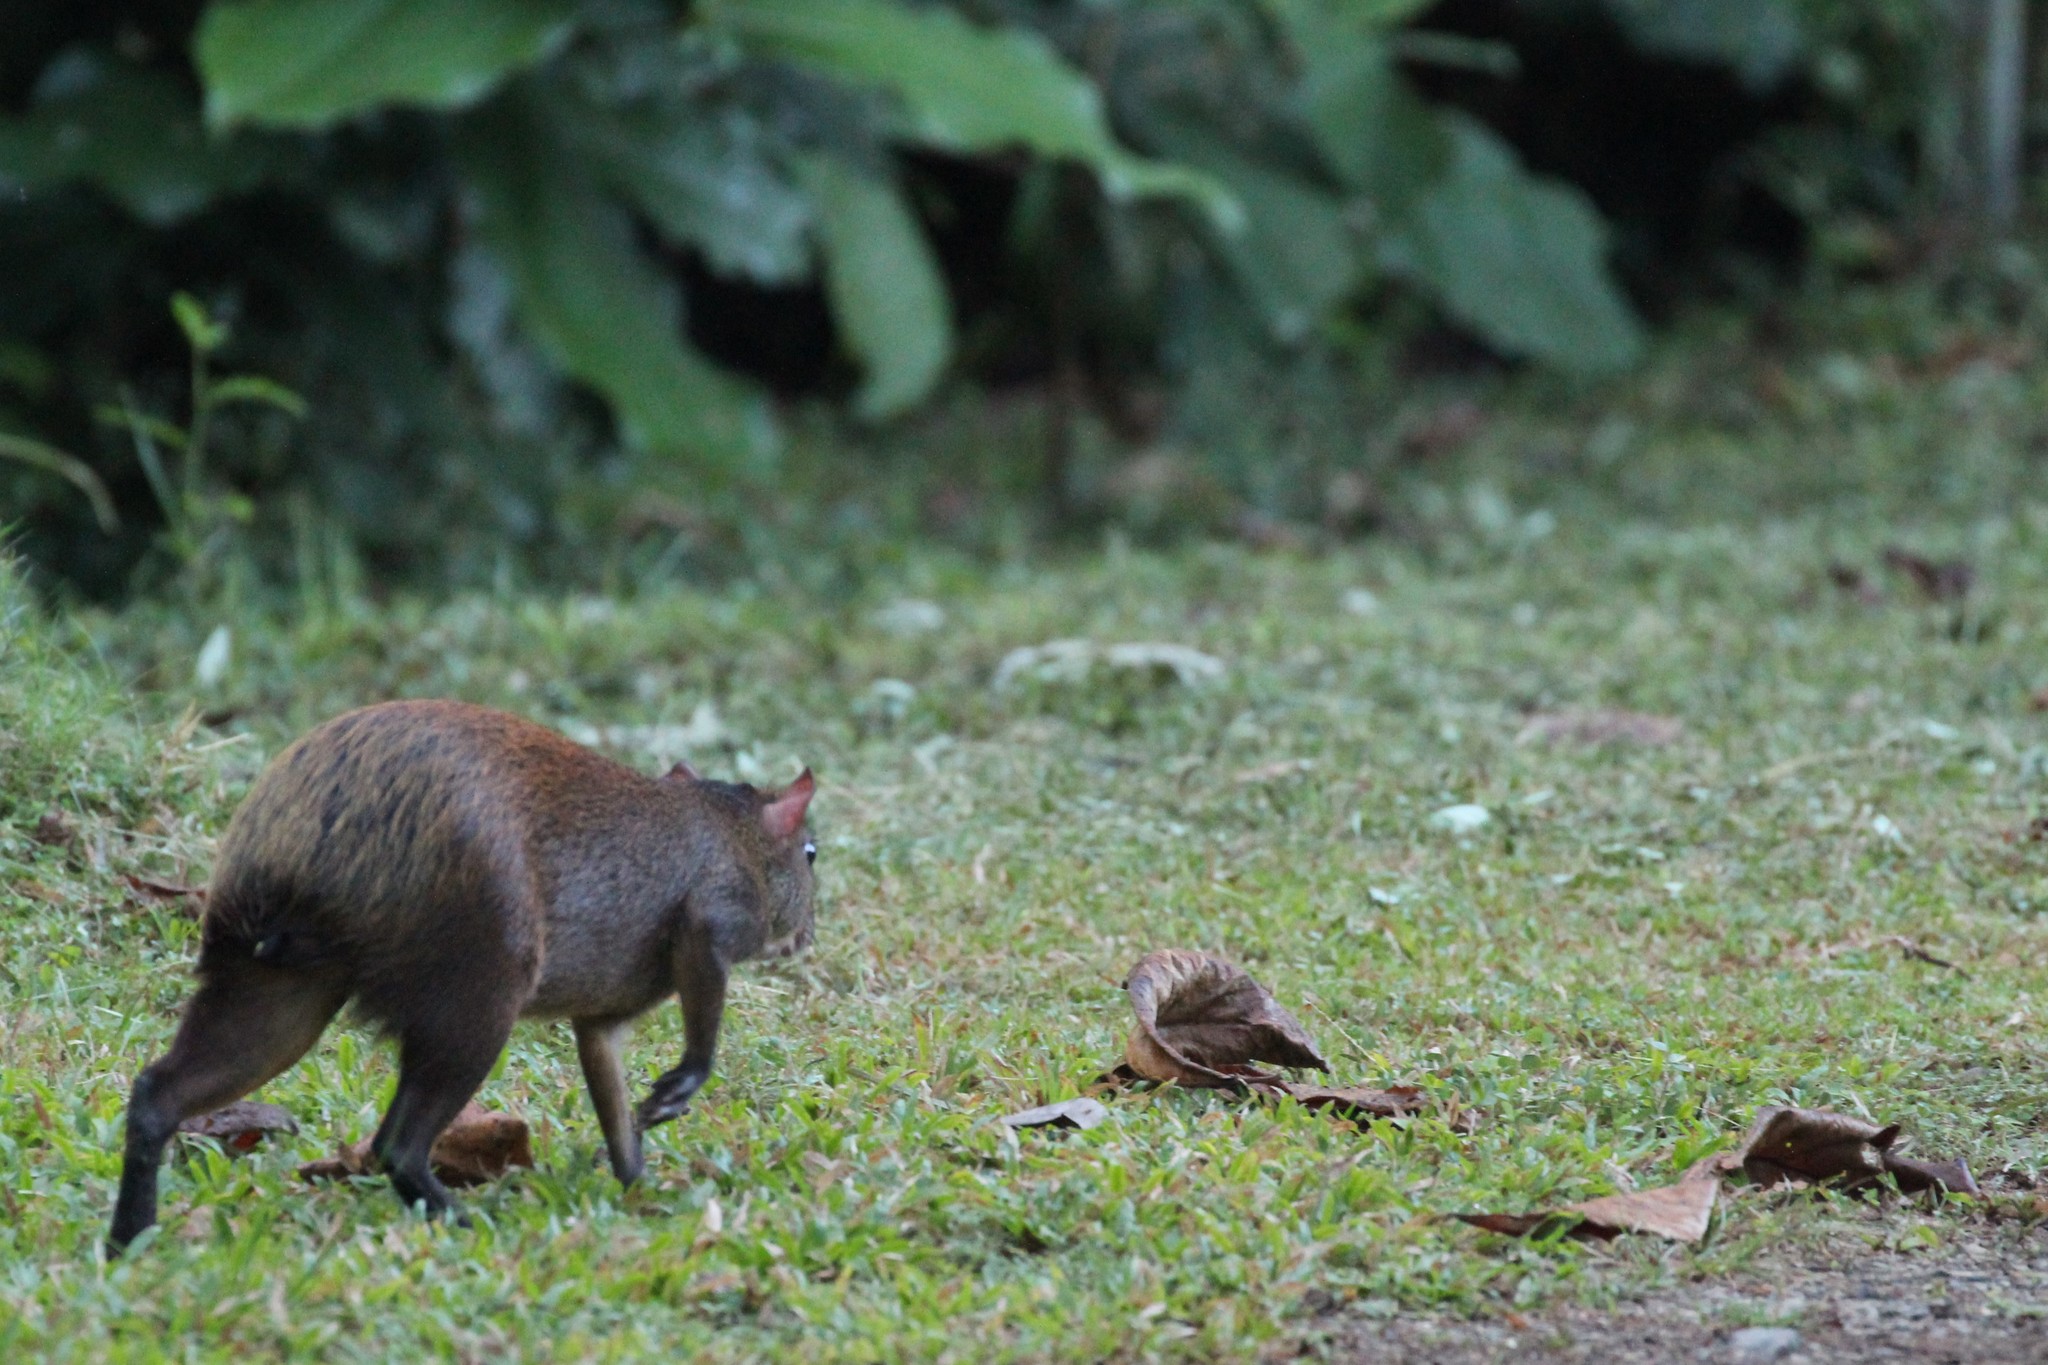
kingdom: Animalia
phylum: Chordata
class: Mammalia
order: Rodentia
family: Dasyproctidae
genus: Dasyprocta
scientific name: Dasyprocta punctata
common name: Central american agouti
